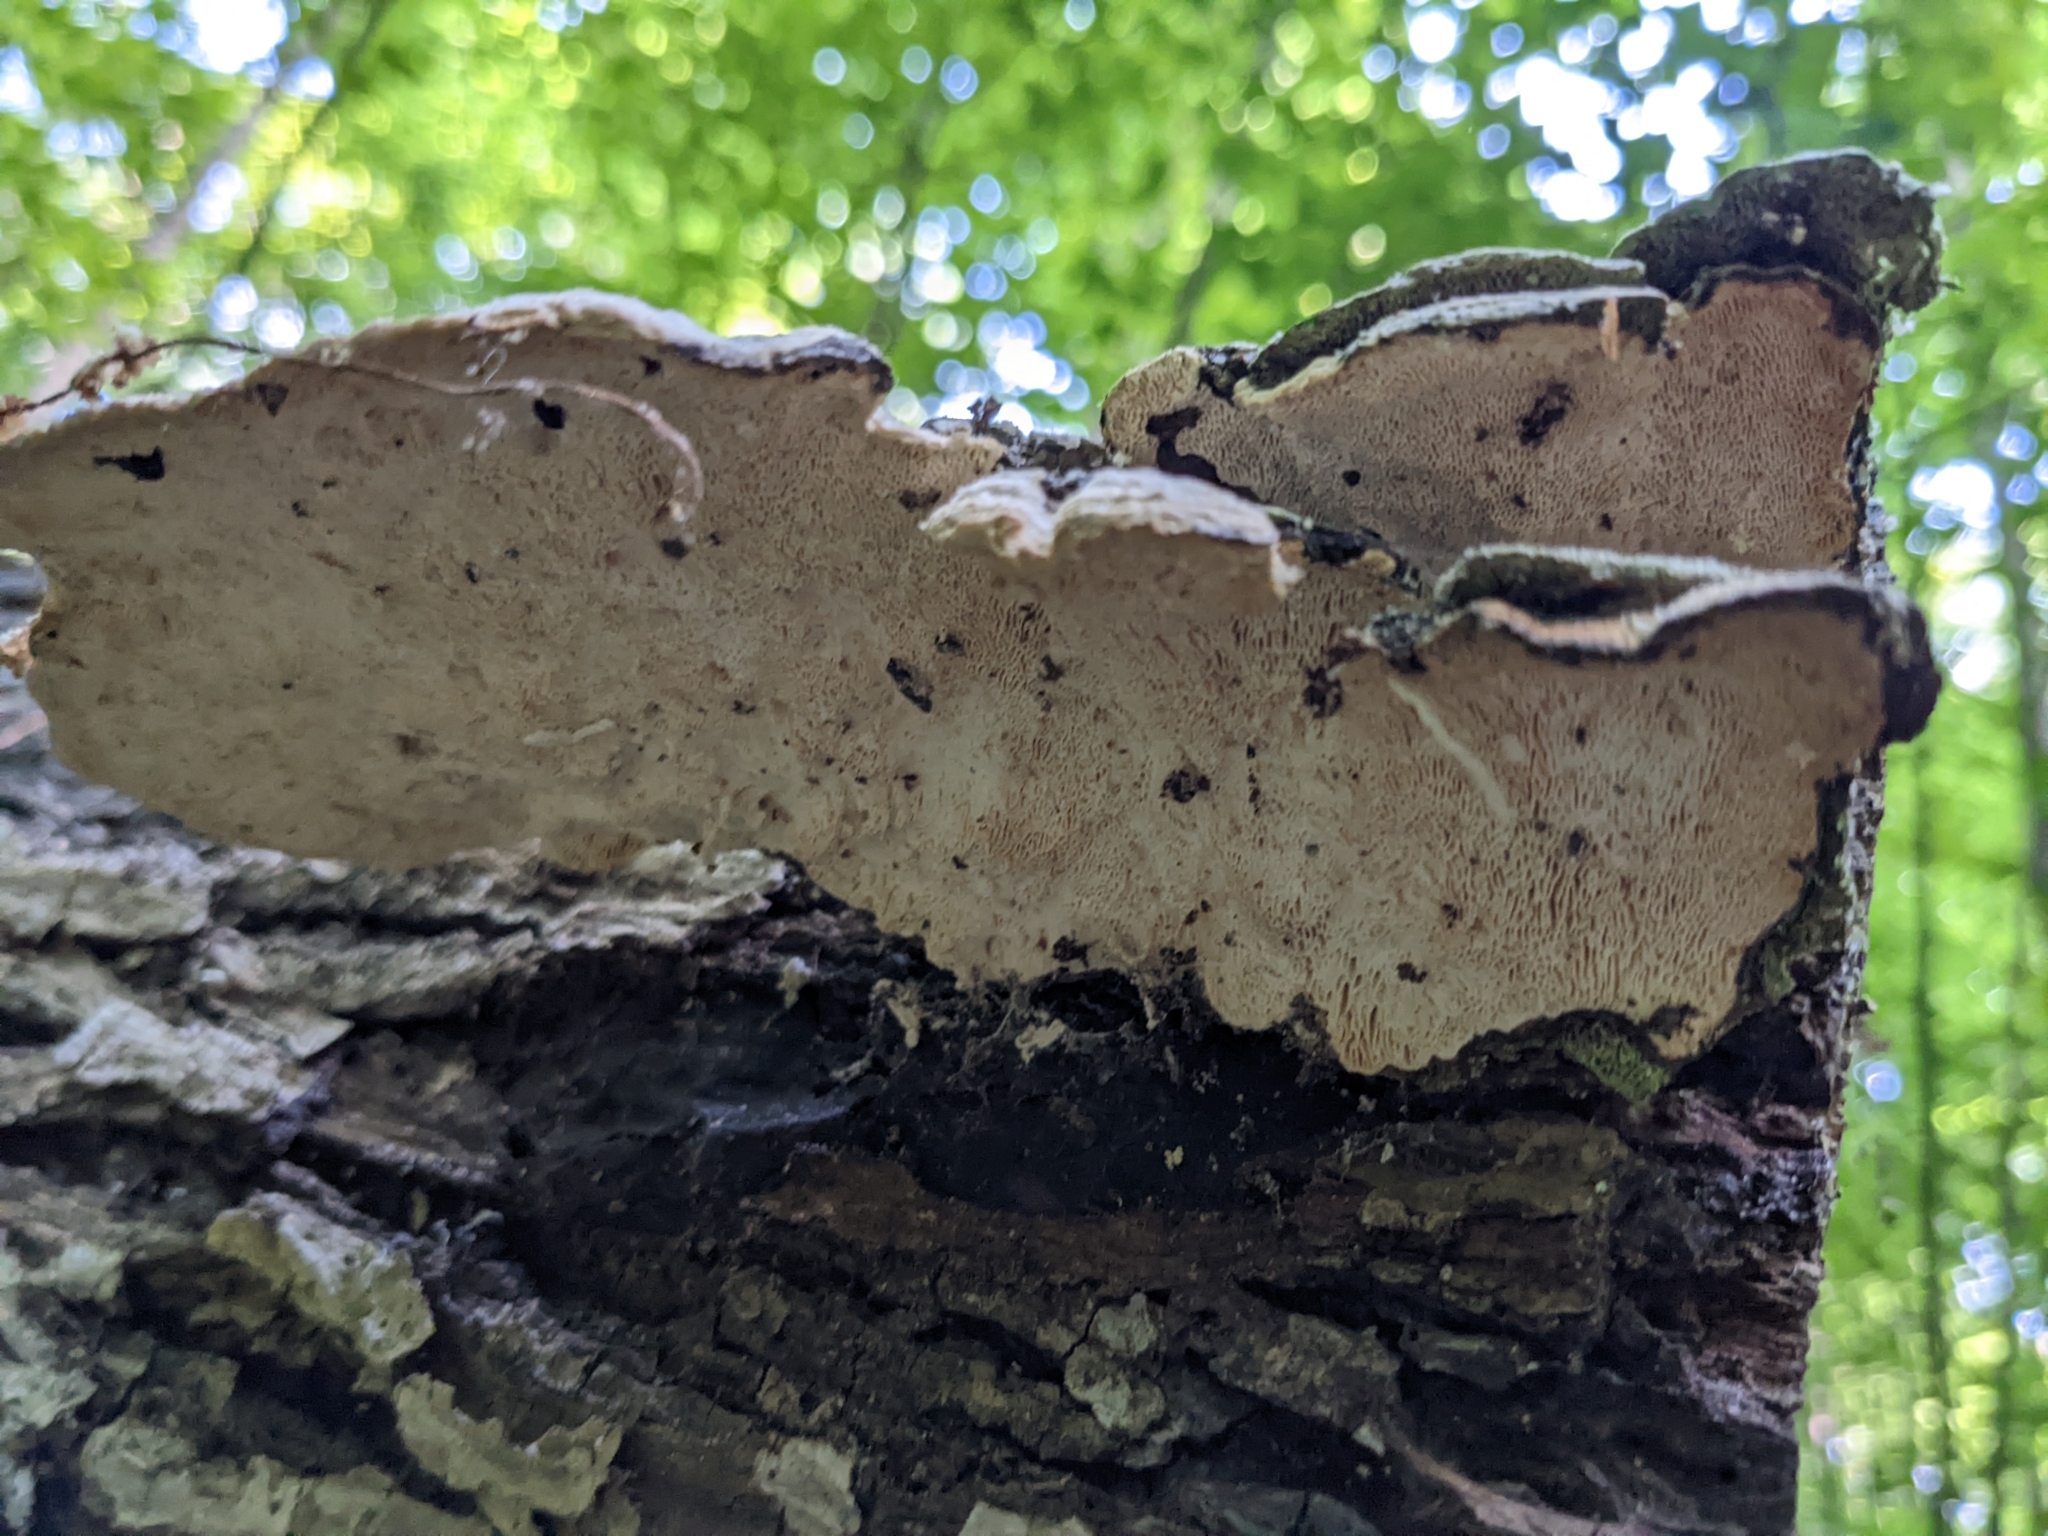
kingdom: Fungi
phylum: Basidiomycota
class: Agaricomycetes
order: Polyporales
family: Polyporaceae
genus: Trametes
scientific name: Trametes gibbosa
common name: Lumpy bracket
